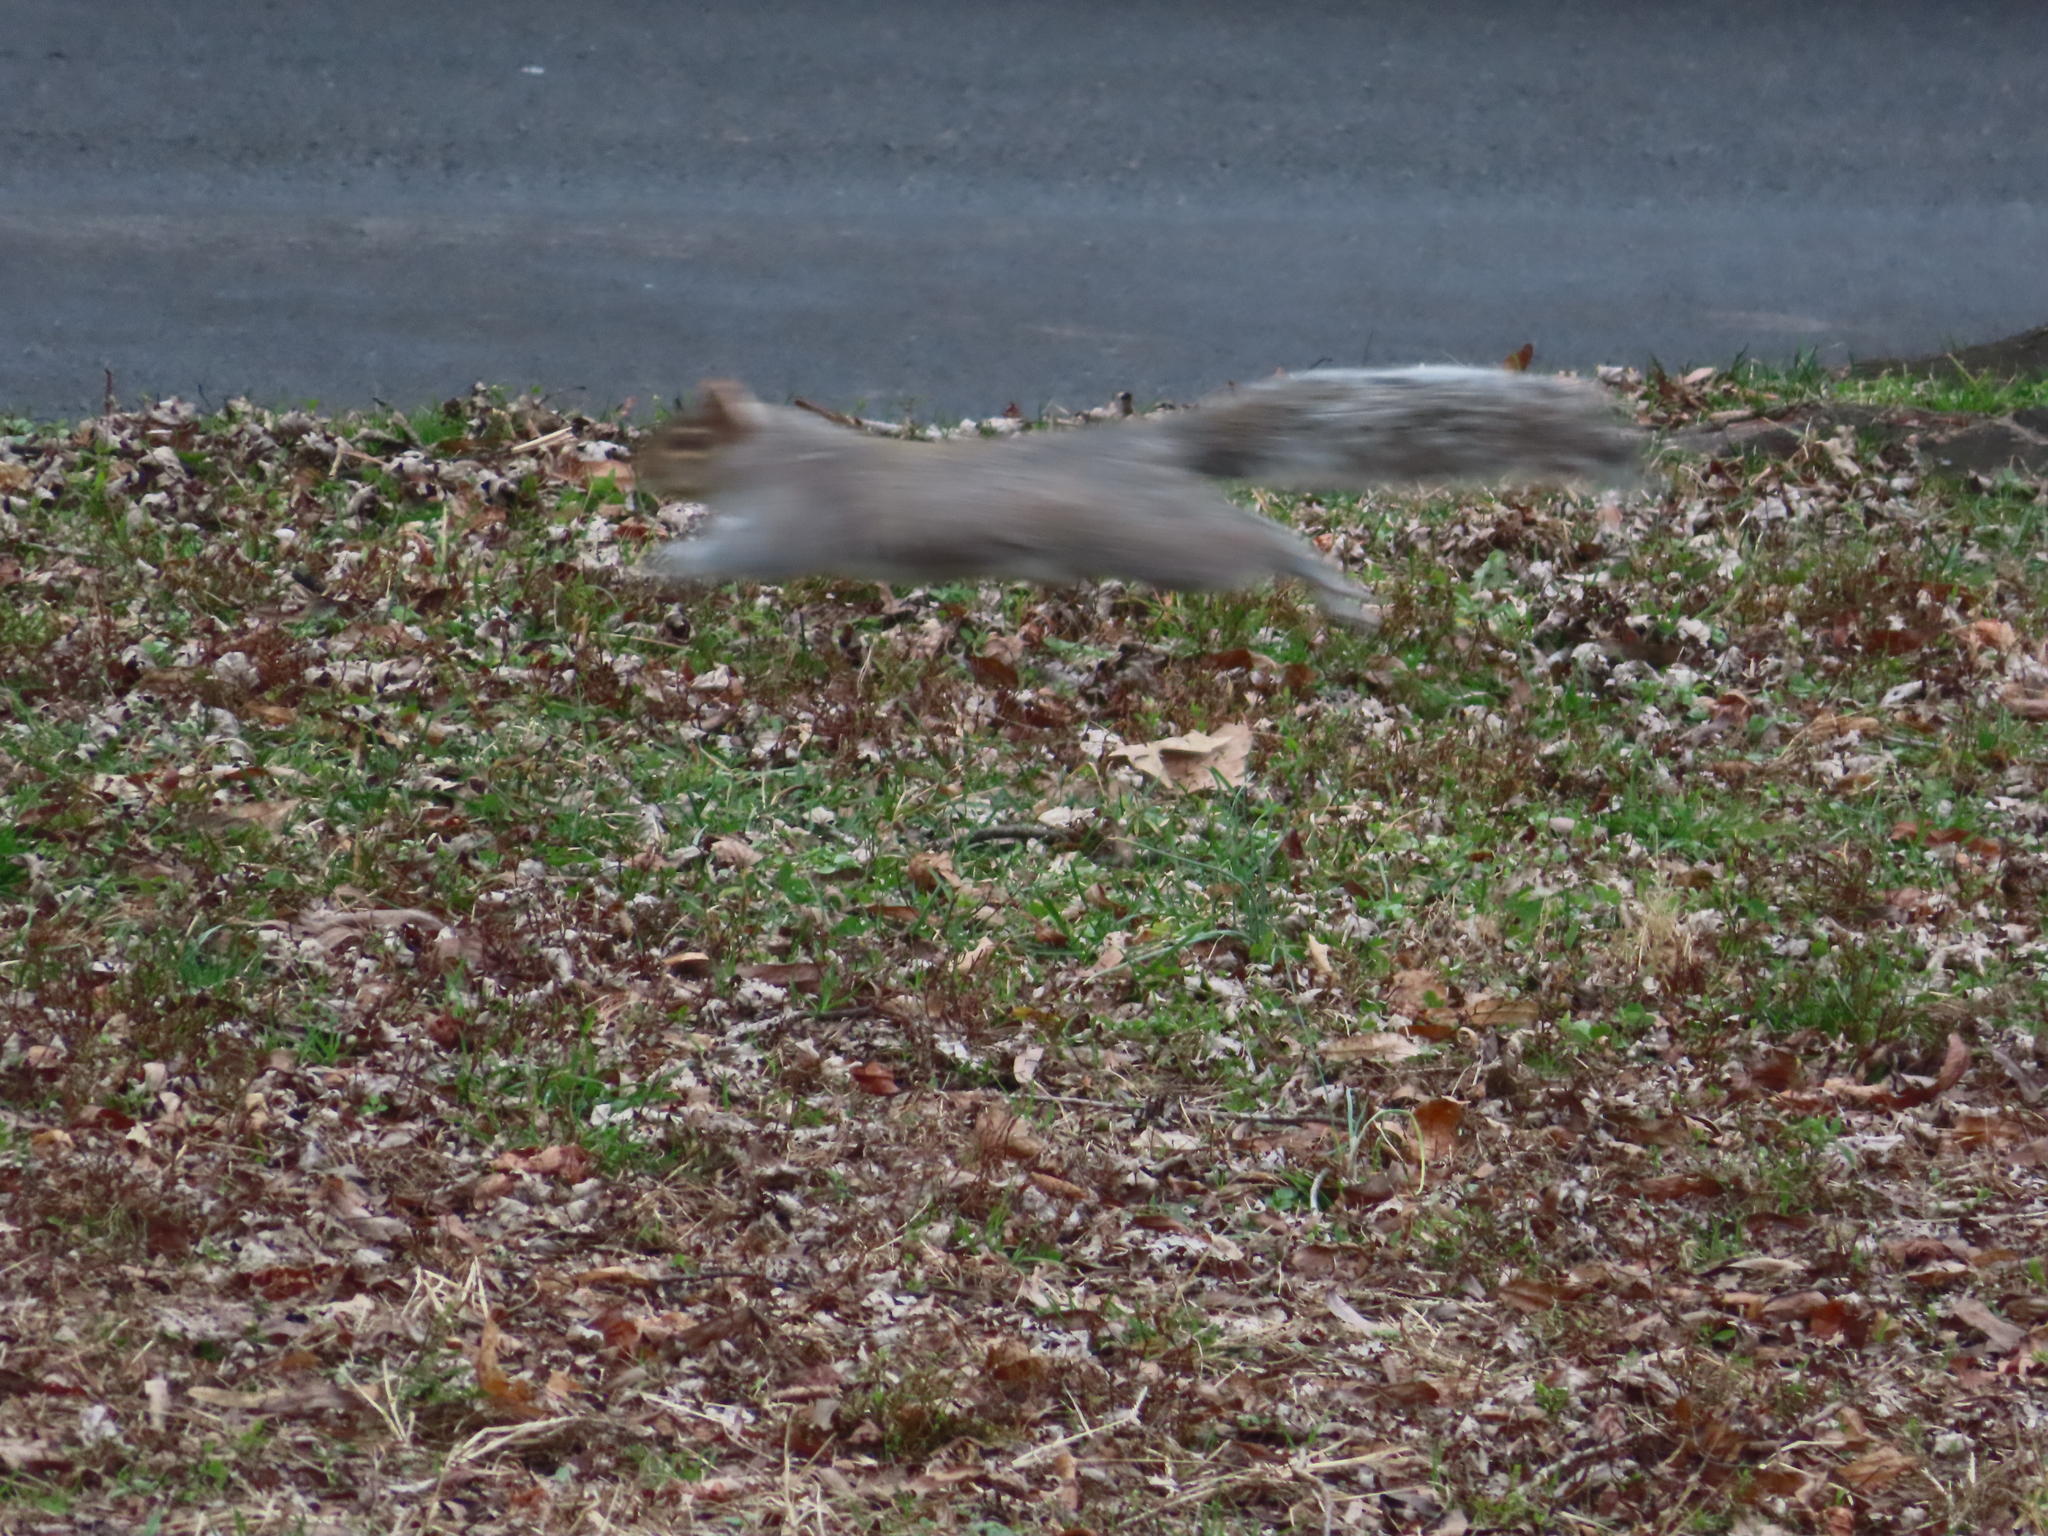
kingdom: Animalia
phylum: Chordata
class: Mammalia
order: Rodentia
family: Sciuridae
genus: Sciurus
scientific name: Sciurus carolinensis
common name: Eastern gray squirrel
